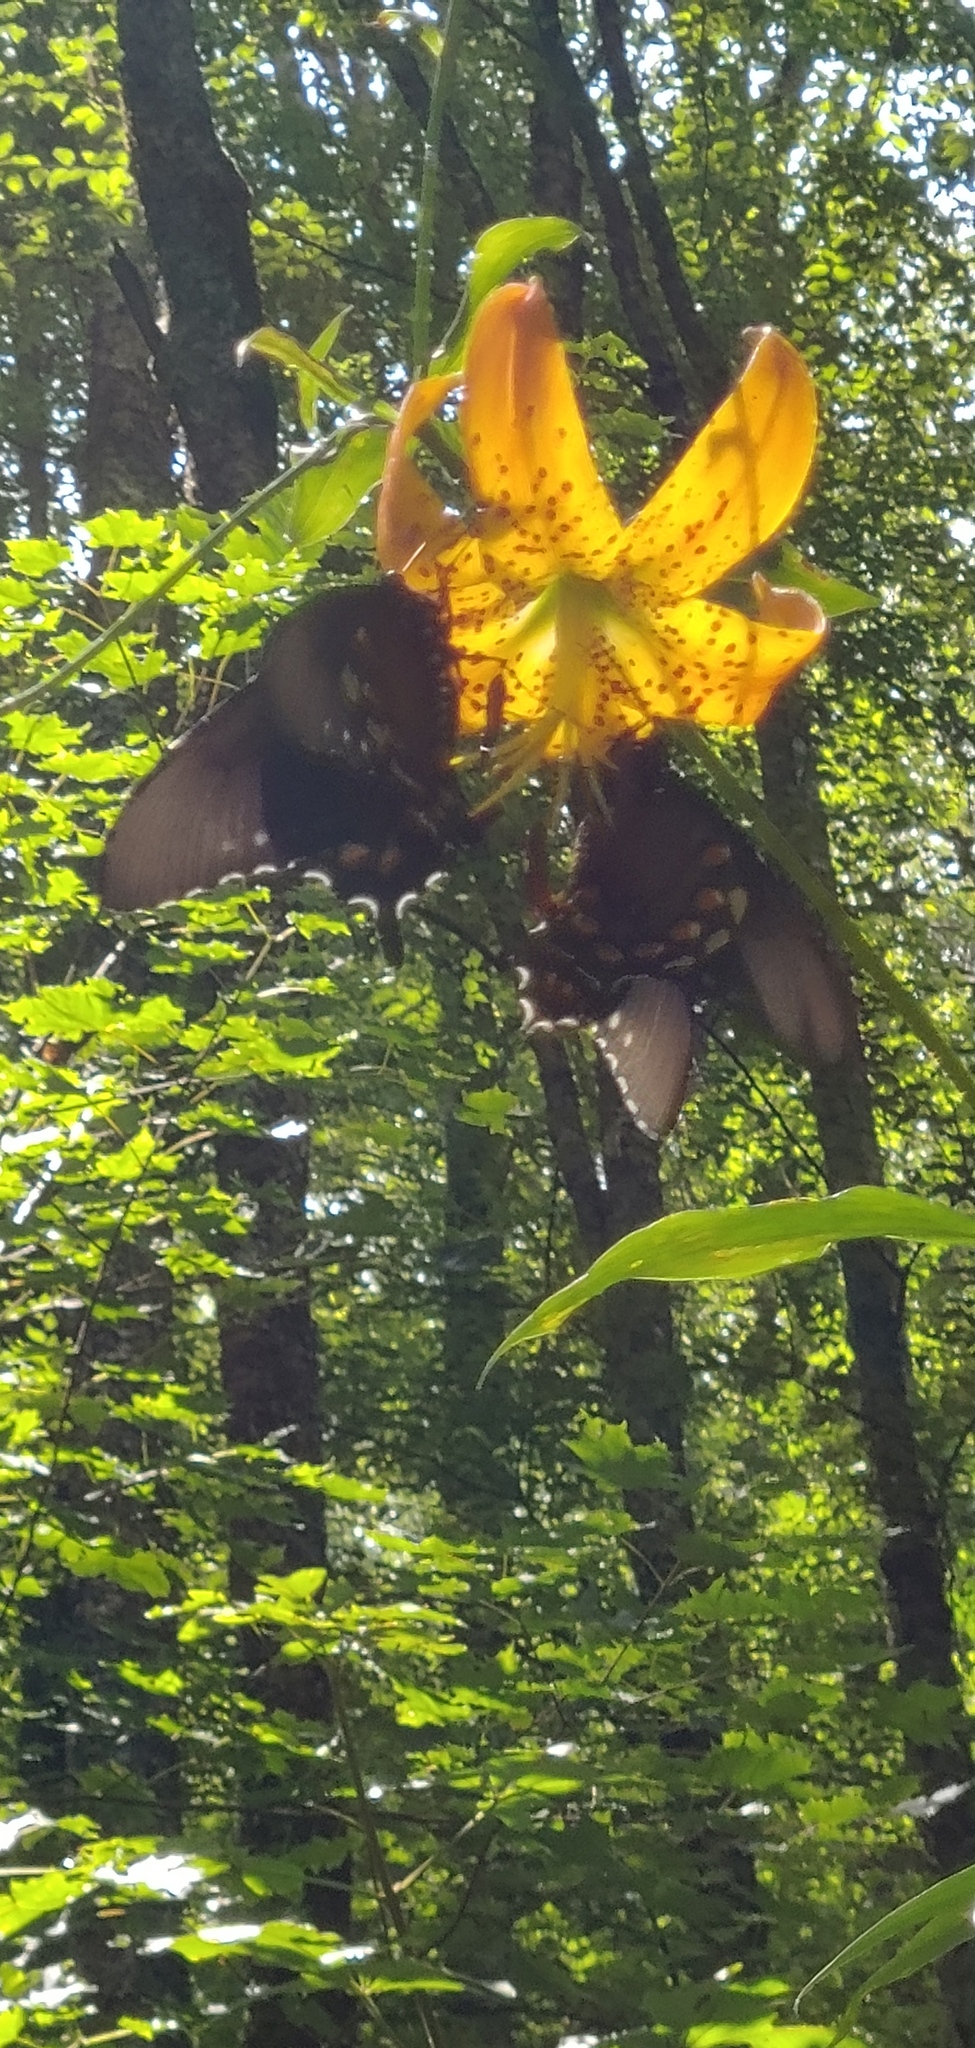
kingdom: Animalia
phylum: Arthropoda
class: Insecta
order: Lepidoptera
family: Papilionidae
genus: Battus
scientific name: Battus philenor
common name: Pipevine swallowtail
